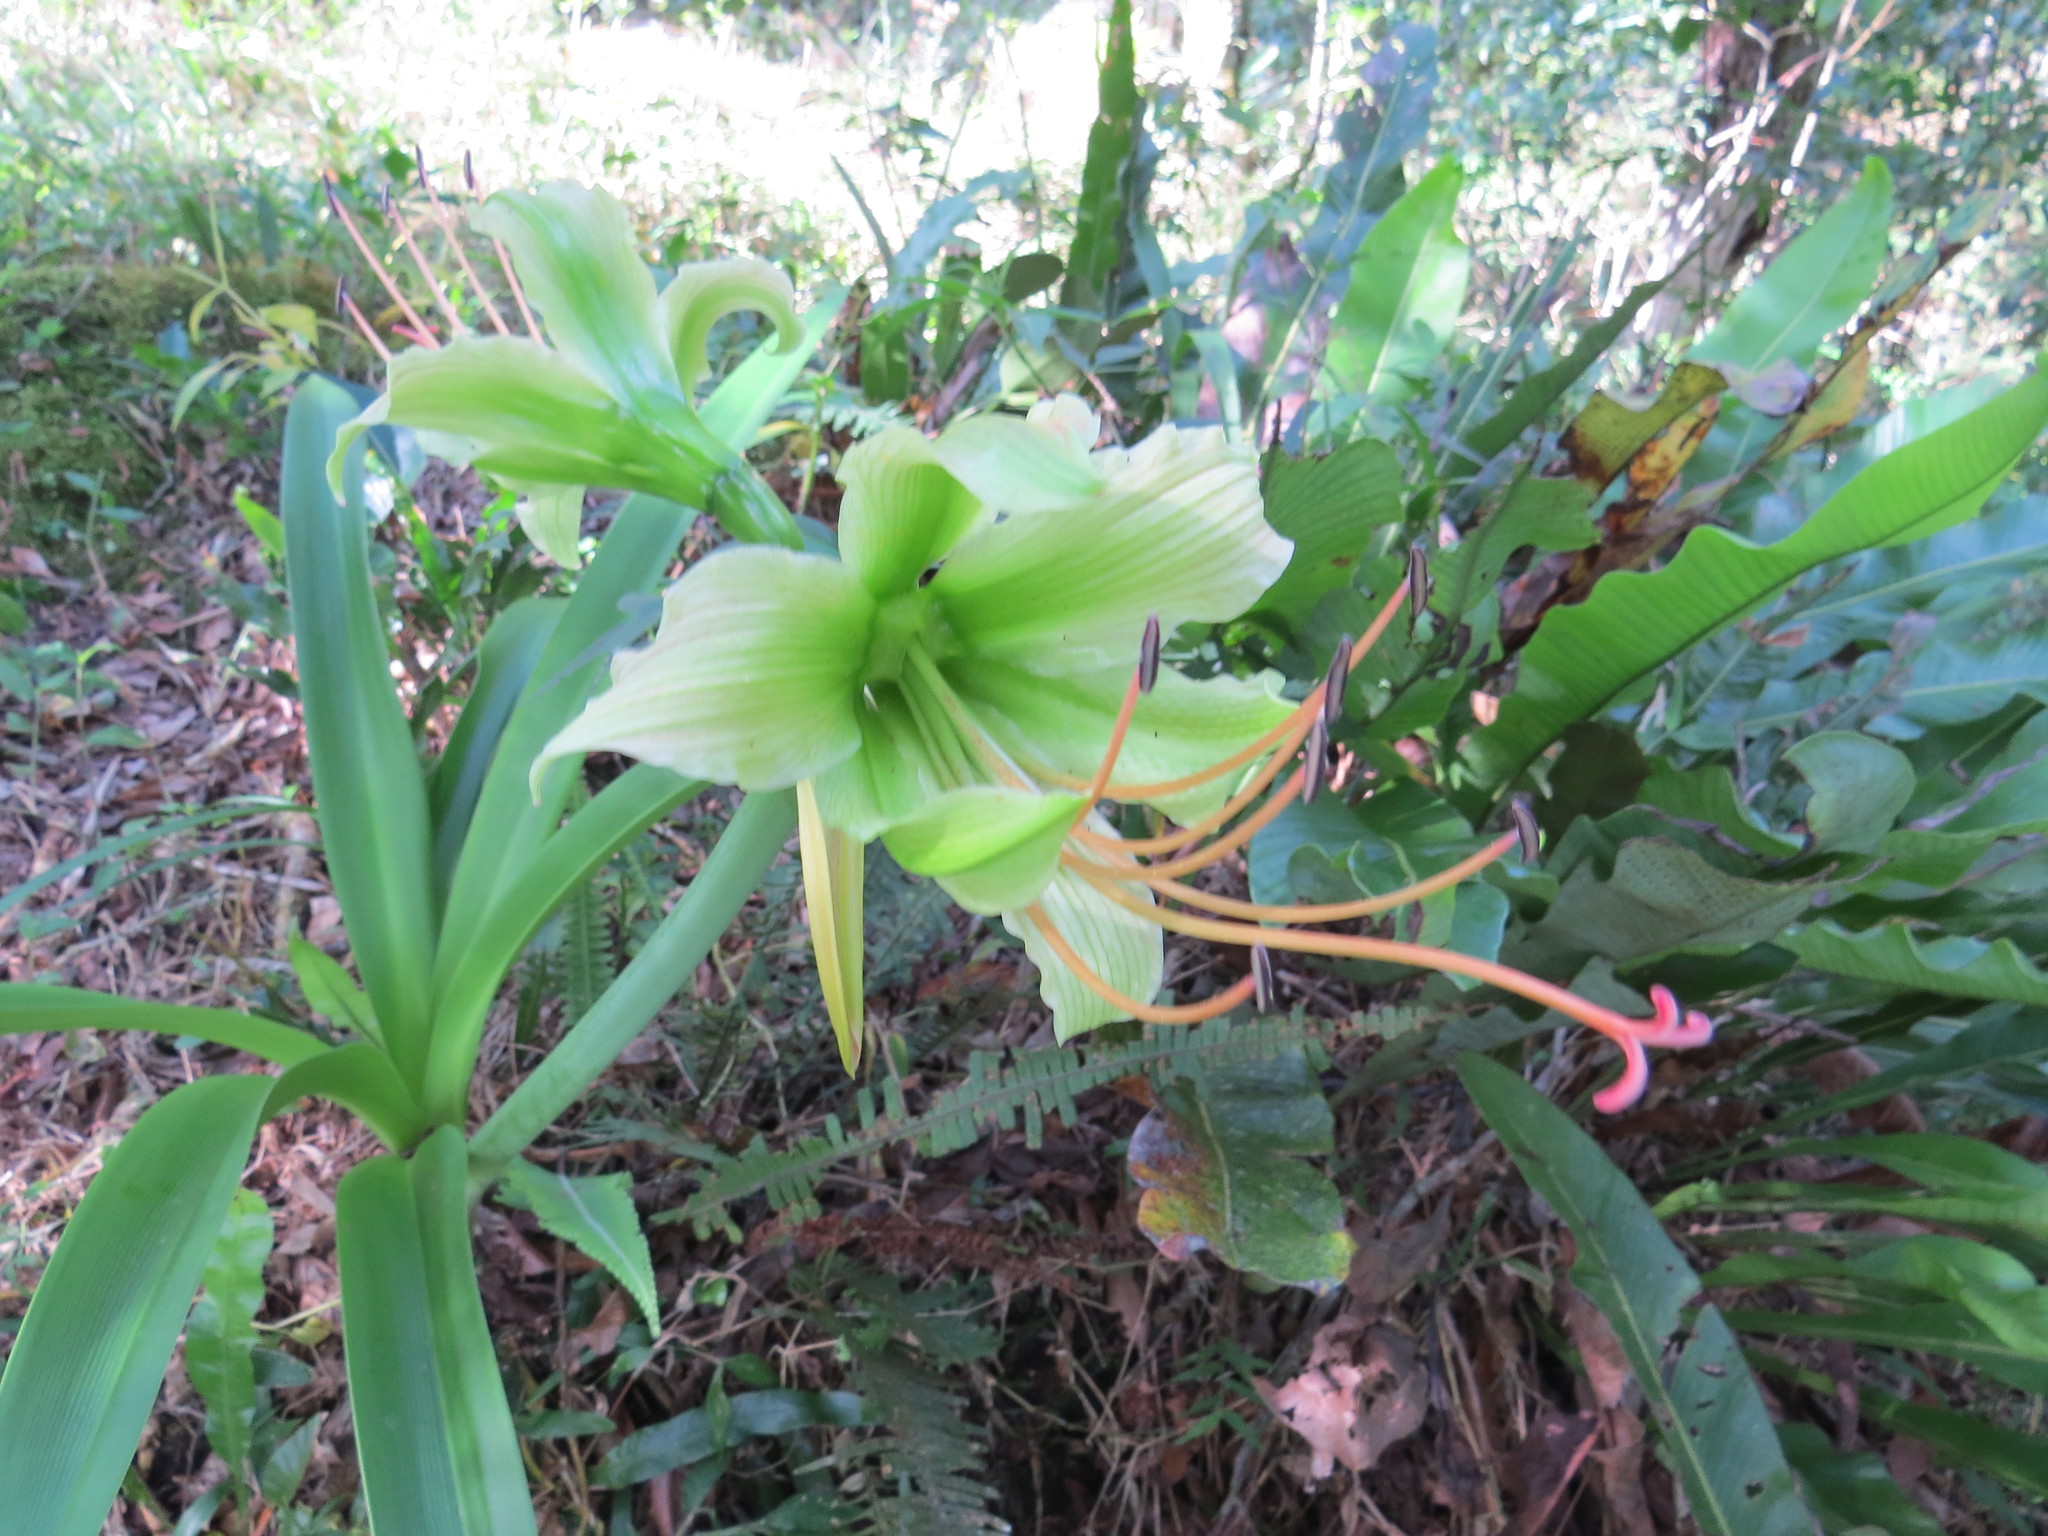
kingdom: Plantae
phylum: Tracheophyta
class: Liliopsida
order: Asparagales
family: Amaryllidaceae
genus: Hippeastrum
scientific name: Hippeastrum calyptratum
